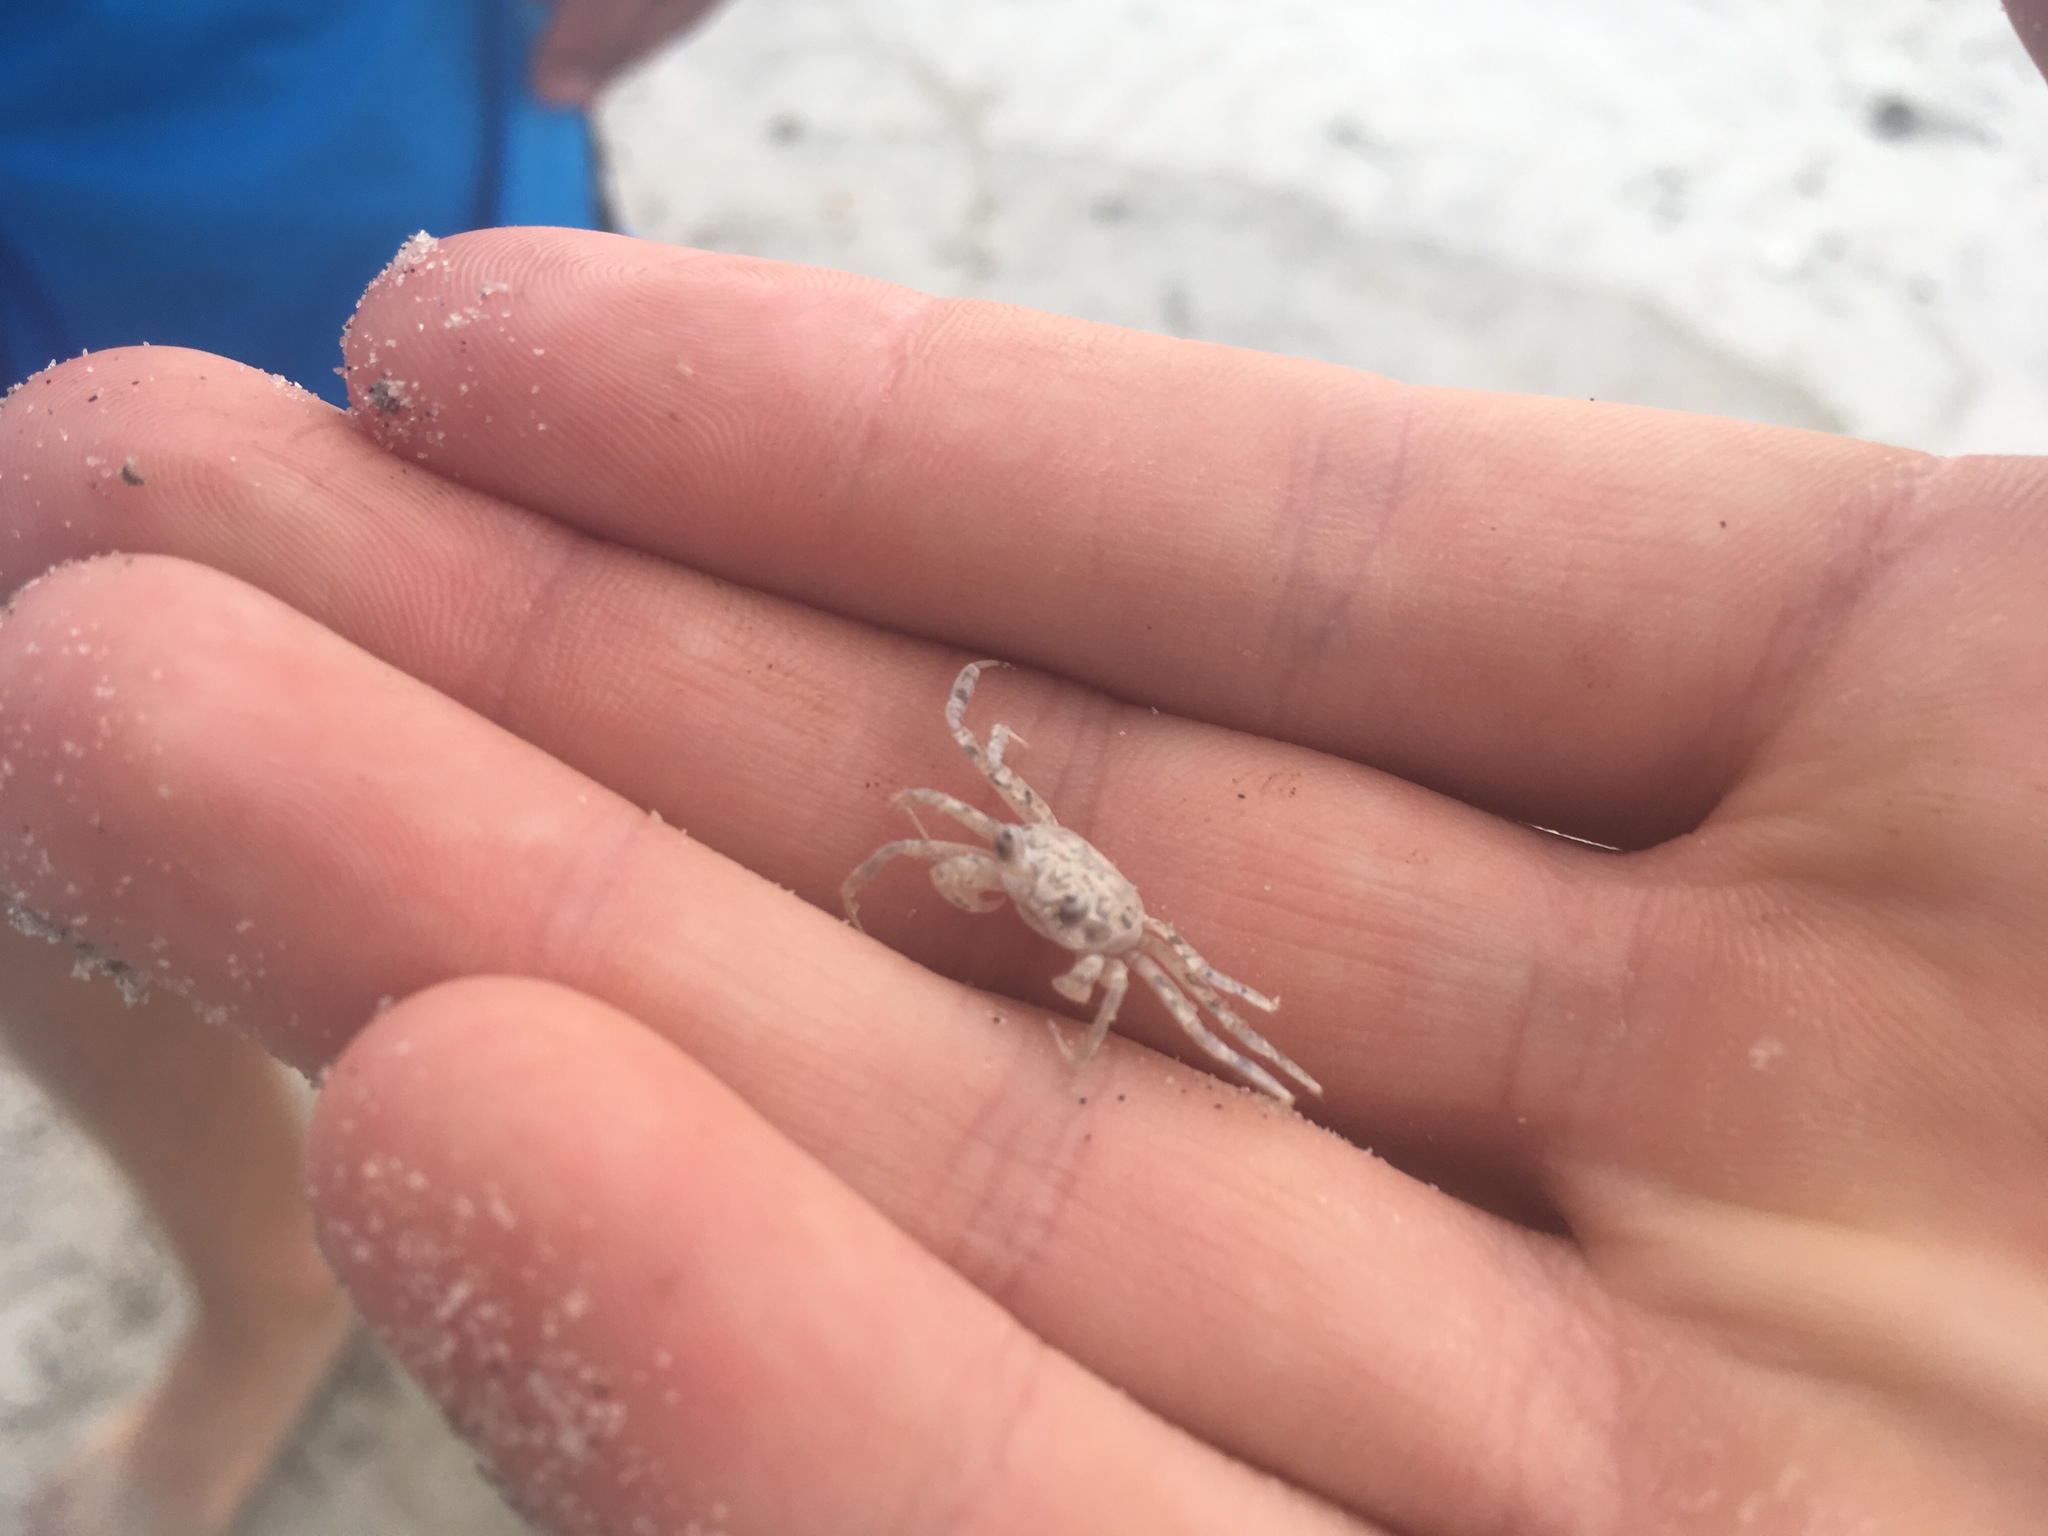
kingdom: Animalia
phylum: Arthropoda
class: Malacostraca
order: Decapoda
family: Ocypodidae
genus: Ocypode
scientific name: Ocypode quadrata
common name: Ghost crab
